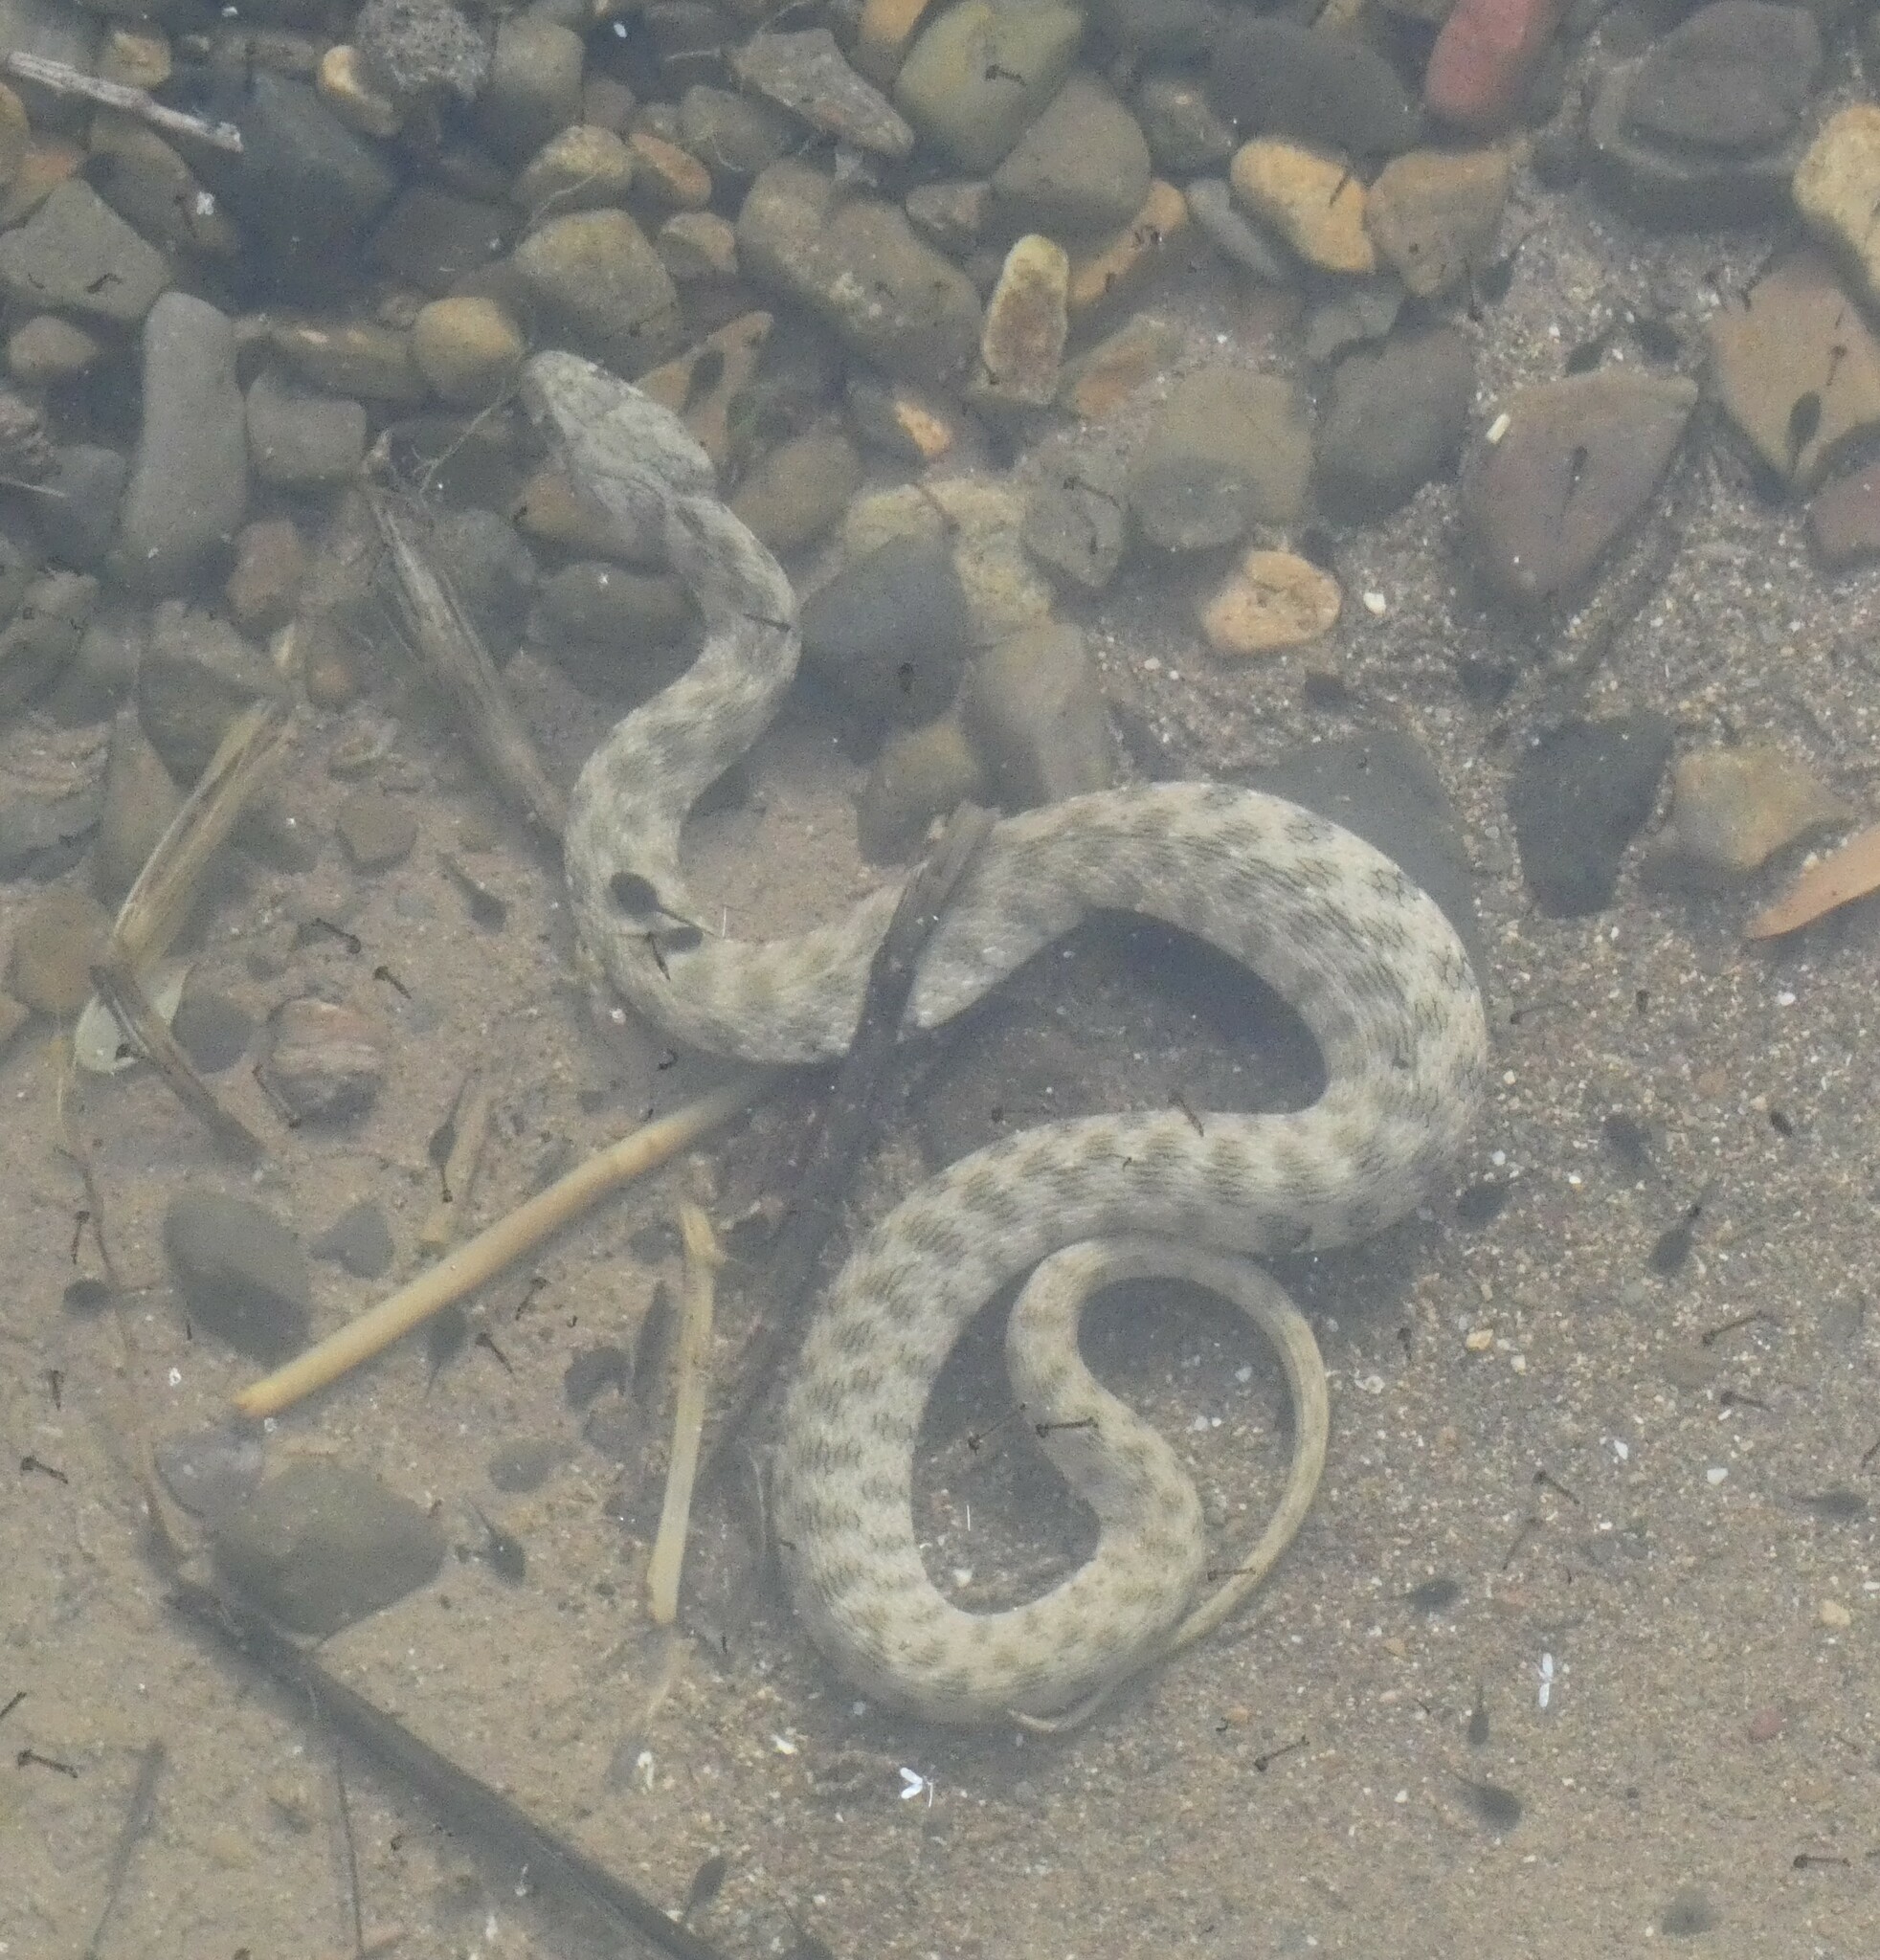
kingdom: Animalia
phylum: Chordata
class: Squamata
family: Colubridae
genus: Natrix
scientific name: Natrix maura
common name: Viperine water snake
